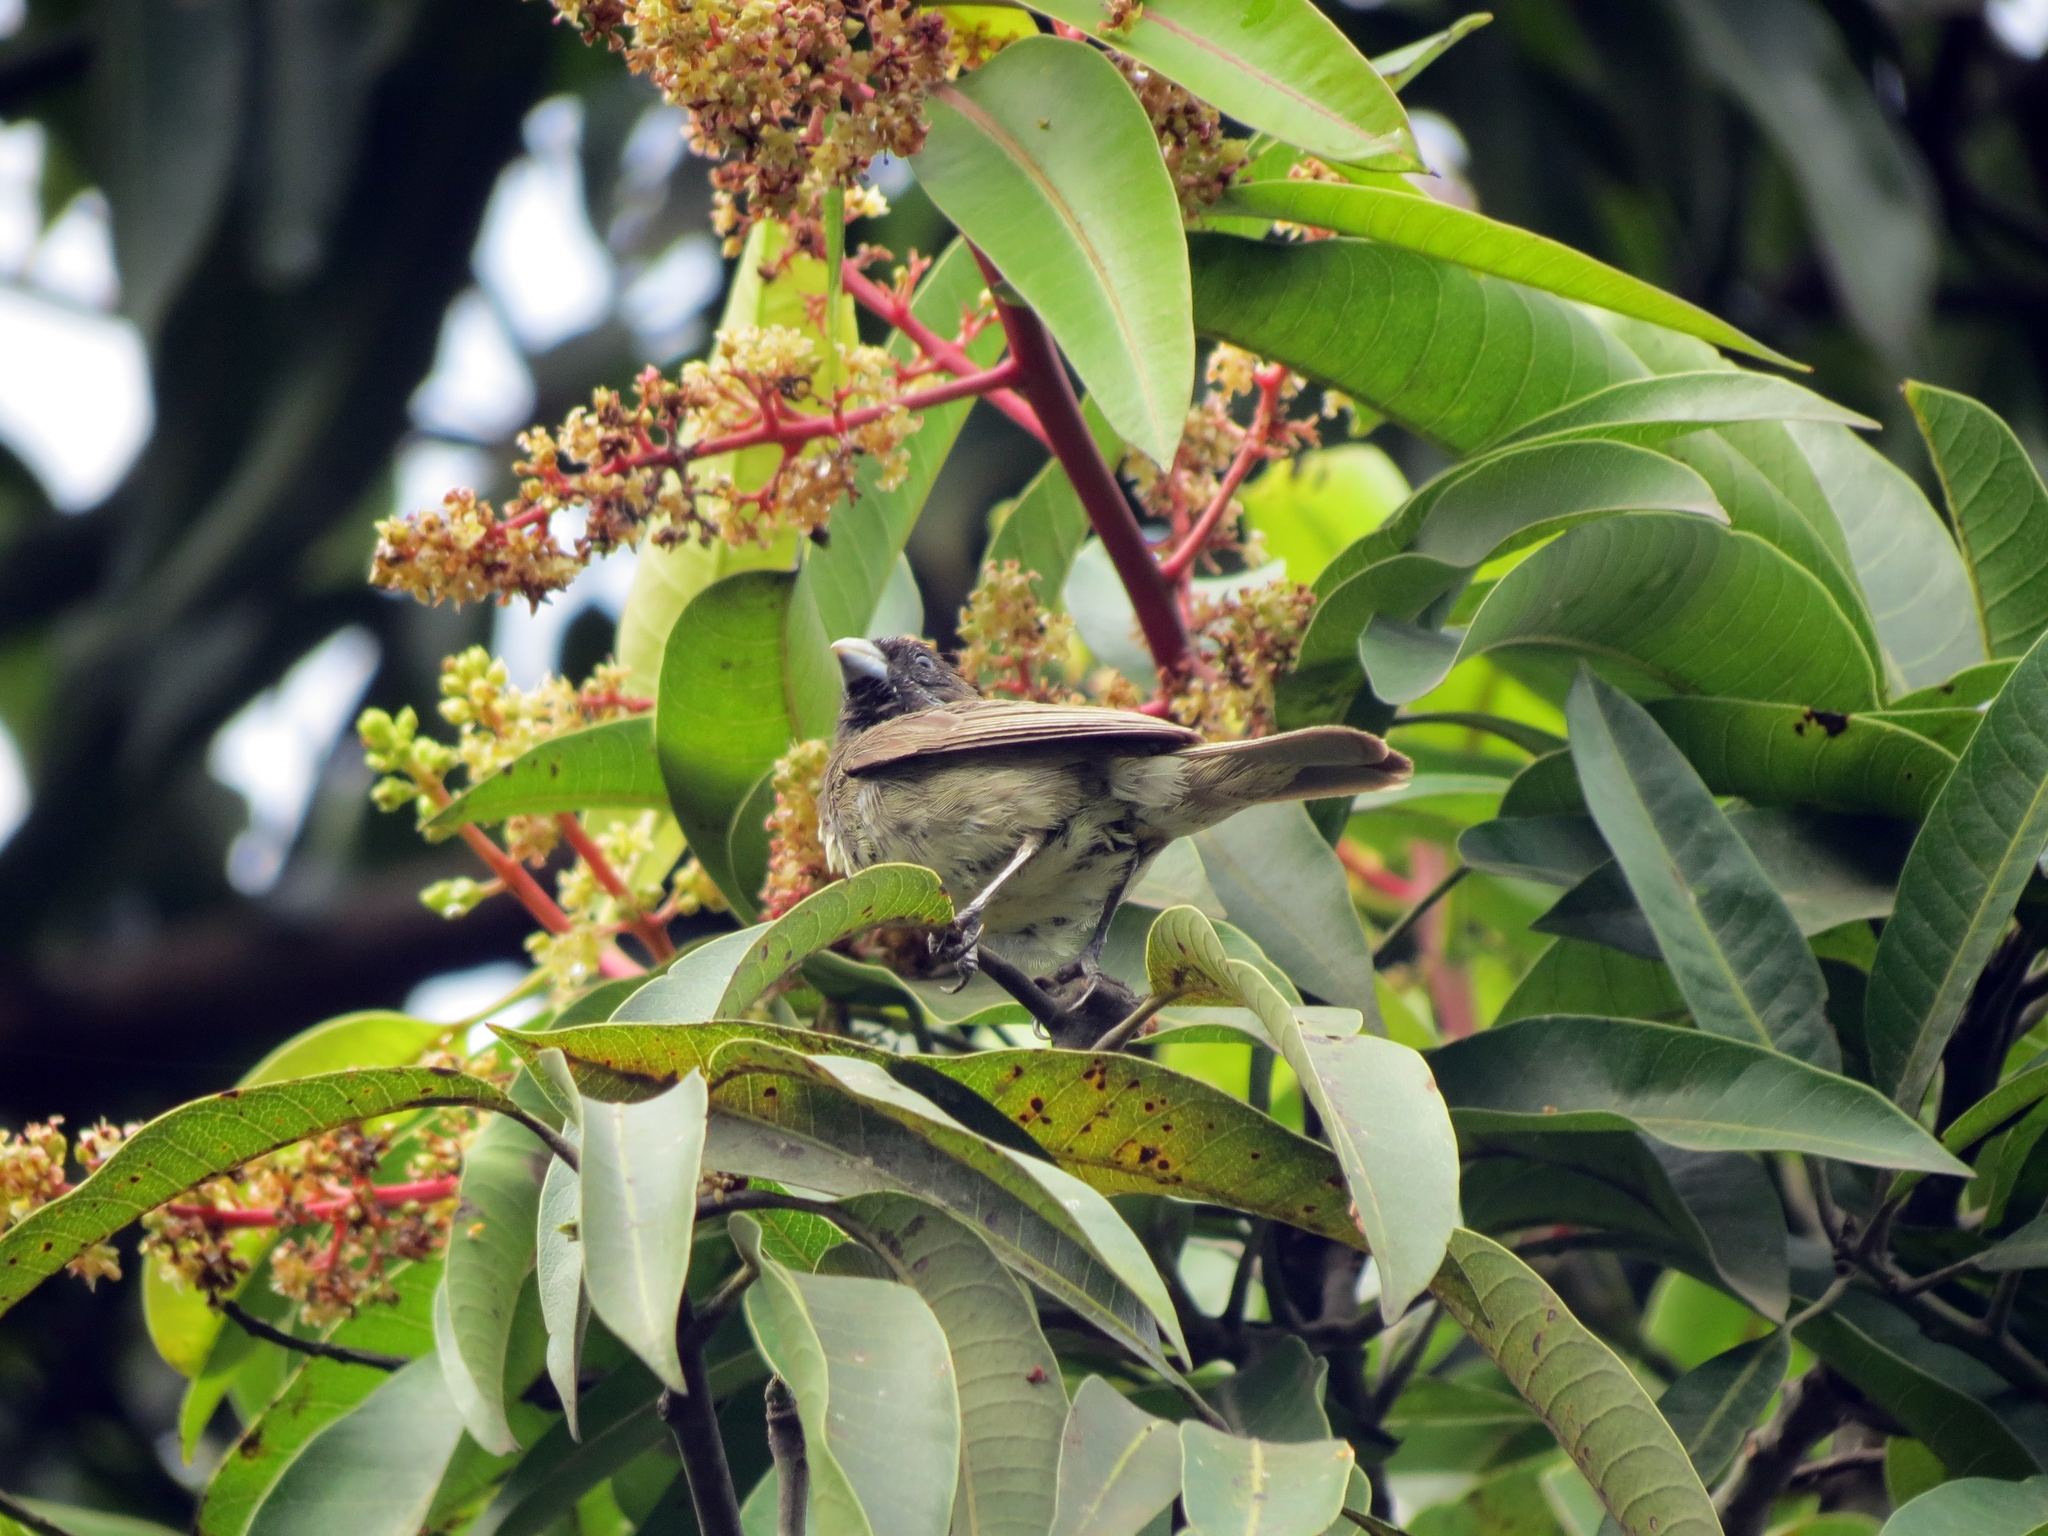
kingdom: Animalia
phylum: Chordata
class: Aves
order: Passeriformes
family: Thraupidae
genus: Sporophila
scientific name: Sporophila nigricollis
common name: Yellow-bellied seedeater
